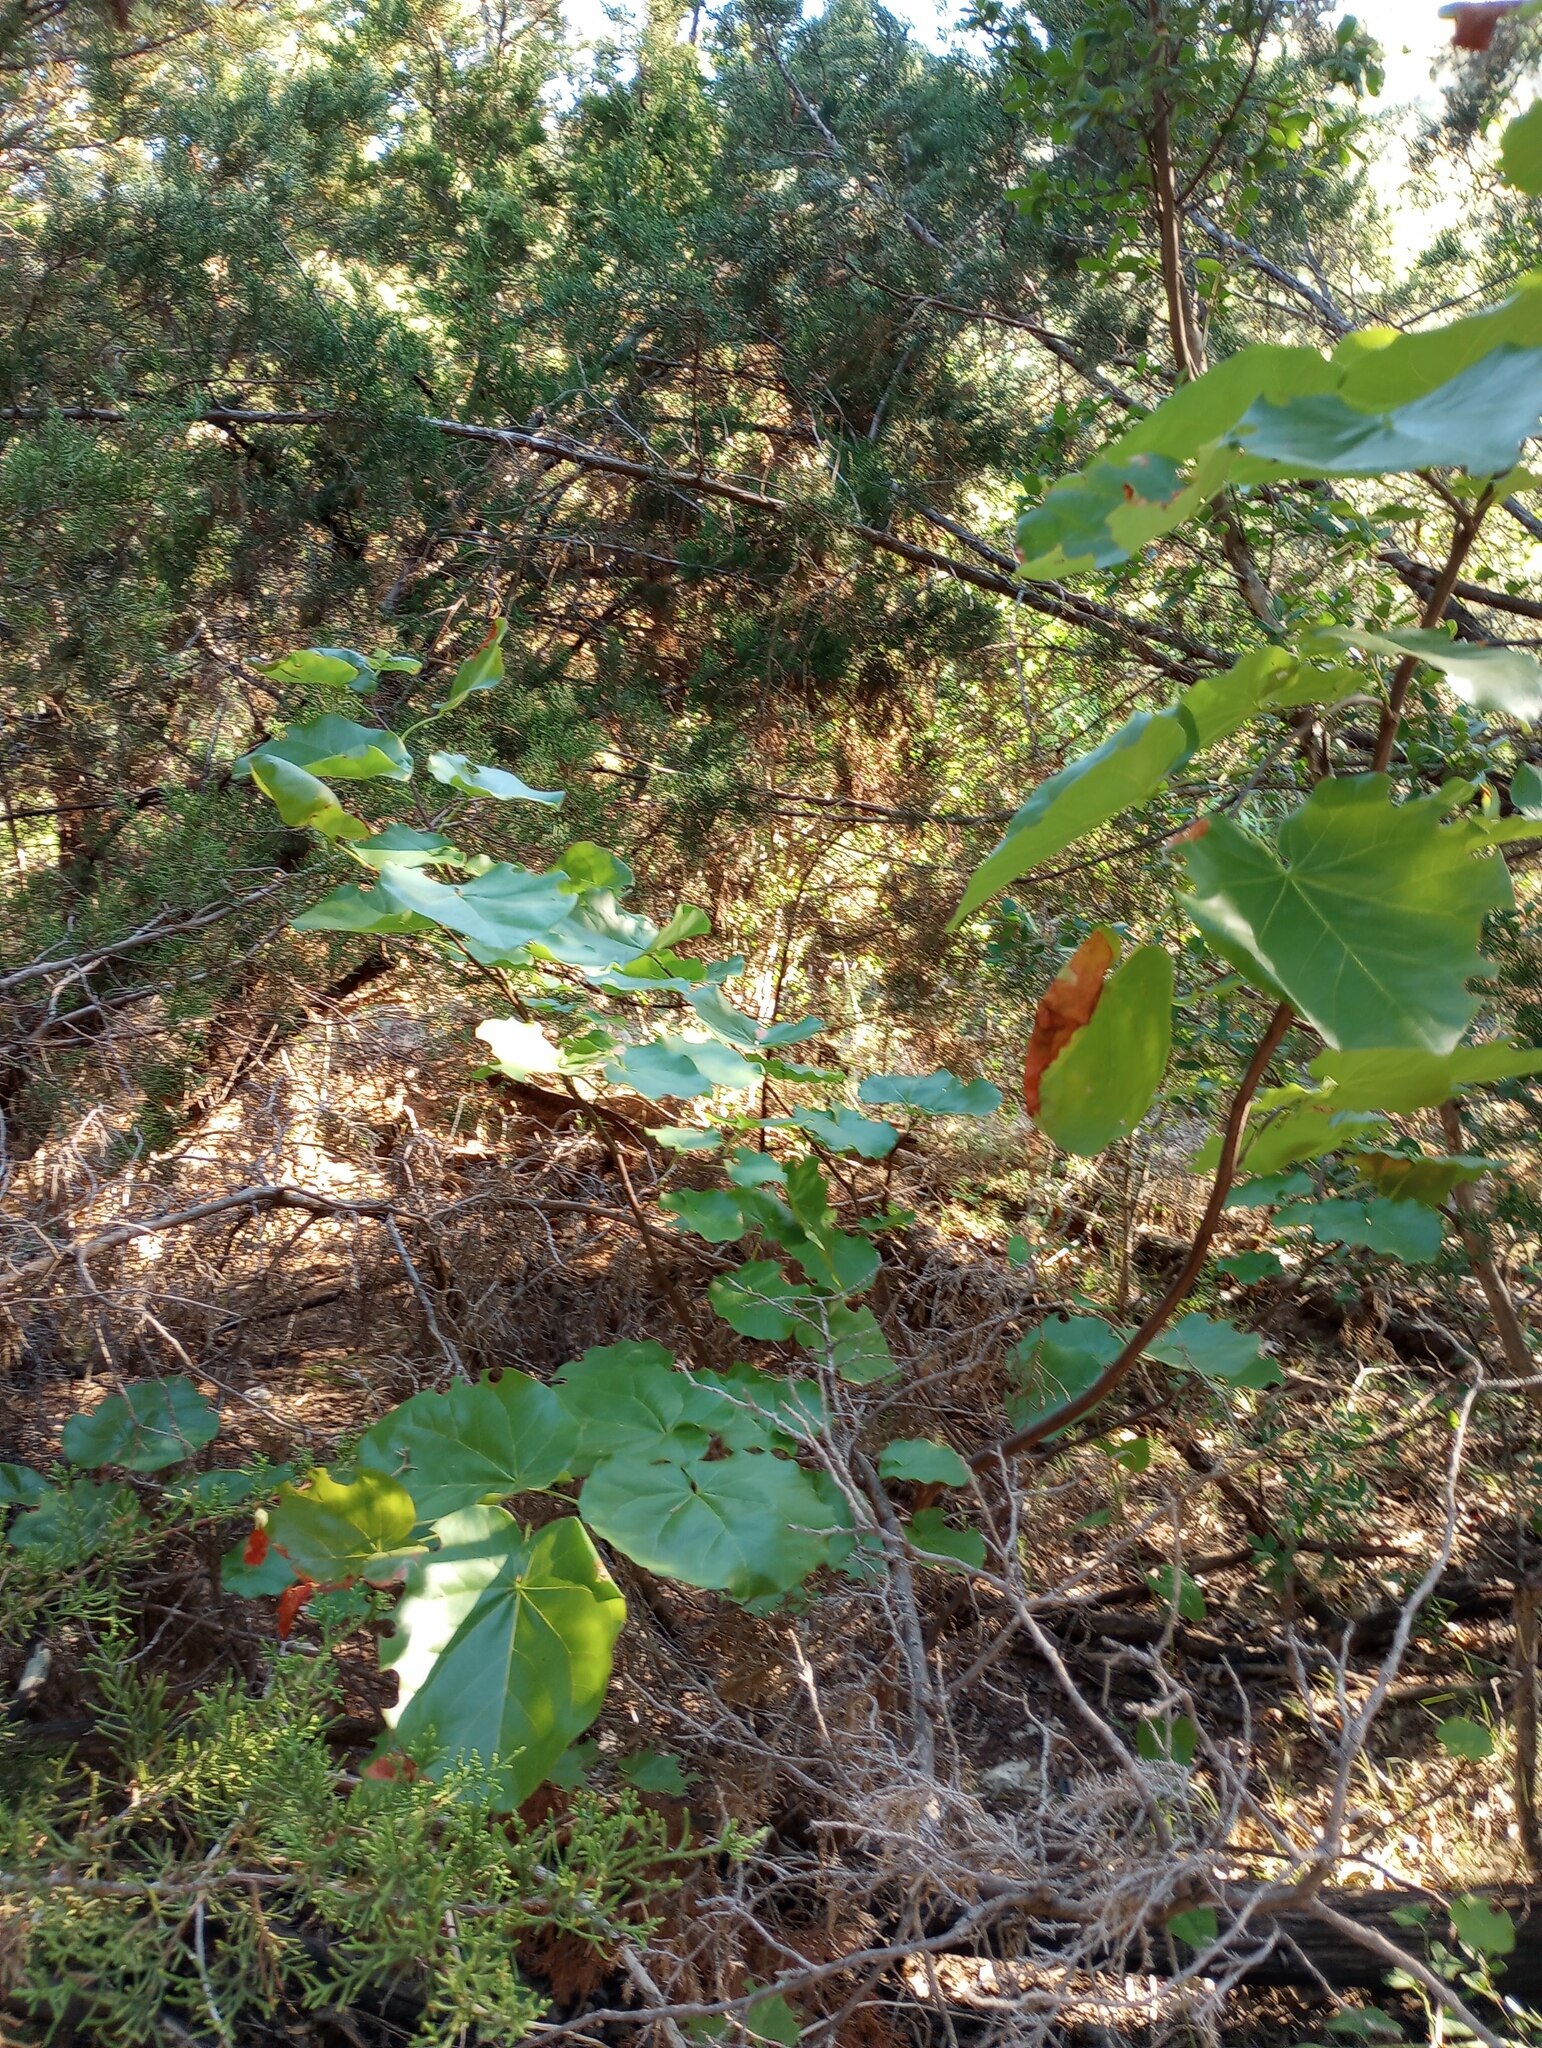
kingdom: Plantae
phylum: Tracheophyta
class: Magnoliopsida
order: Fabales
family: Fabaceae
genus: Cercis
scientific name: Cercis canadensis
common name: Eastern redbud
